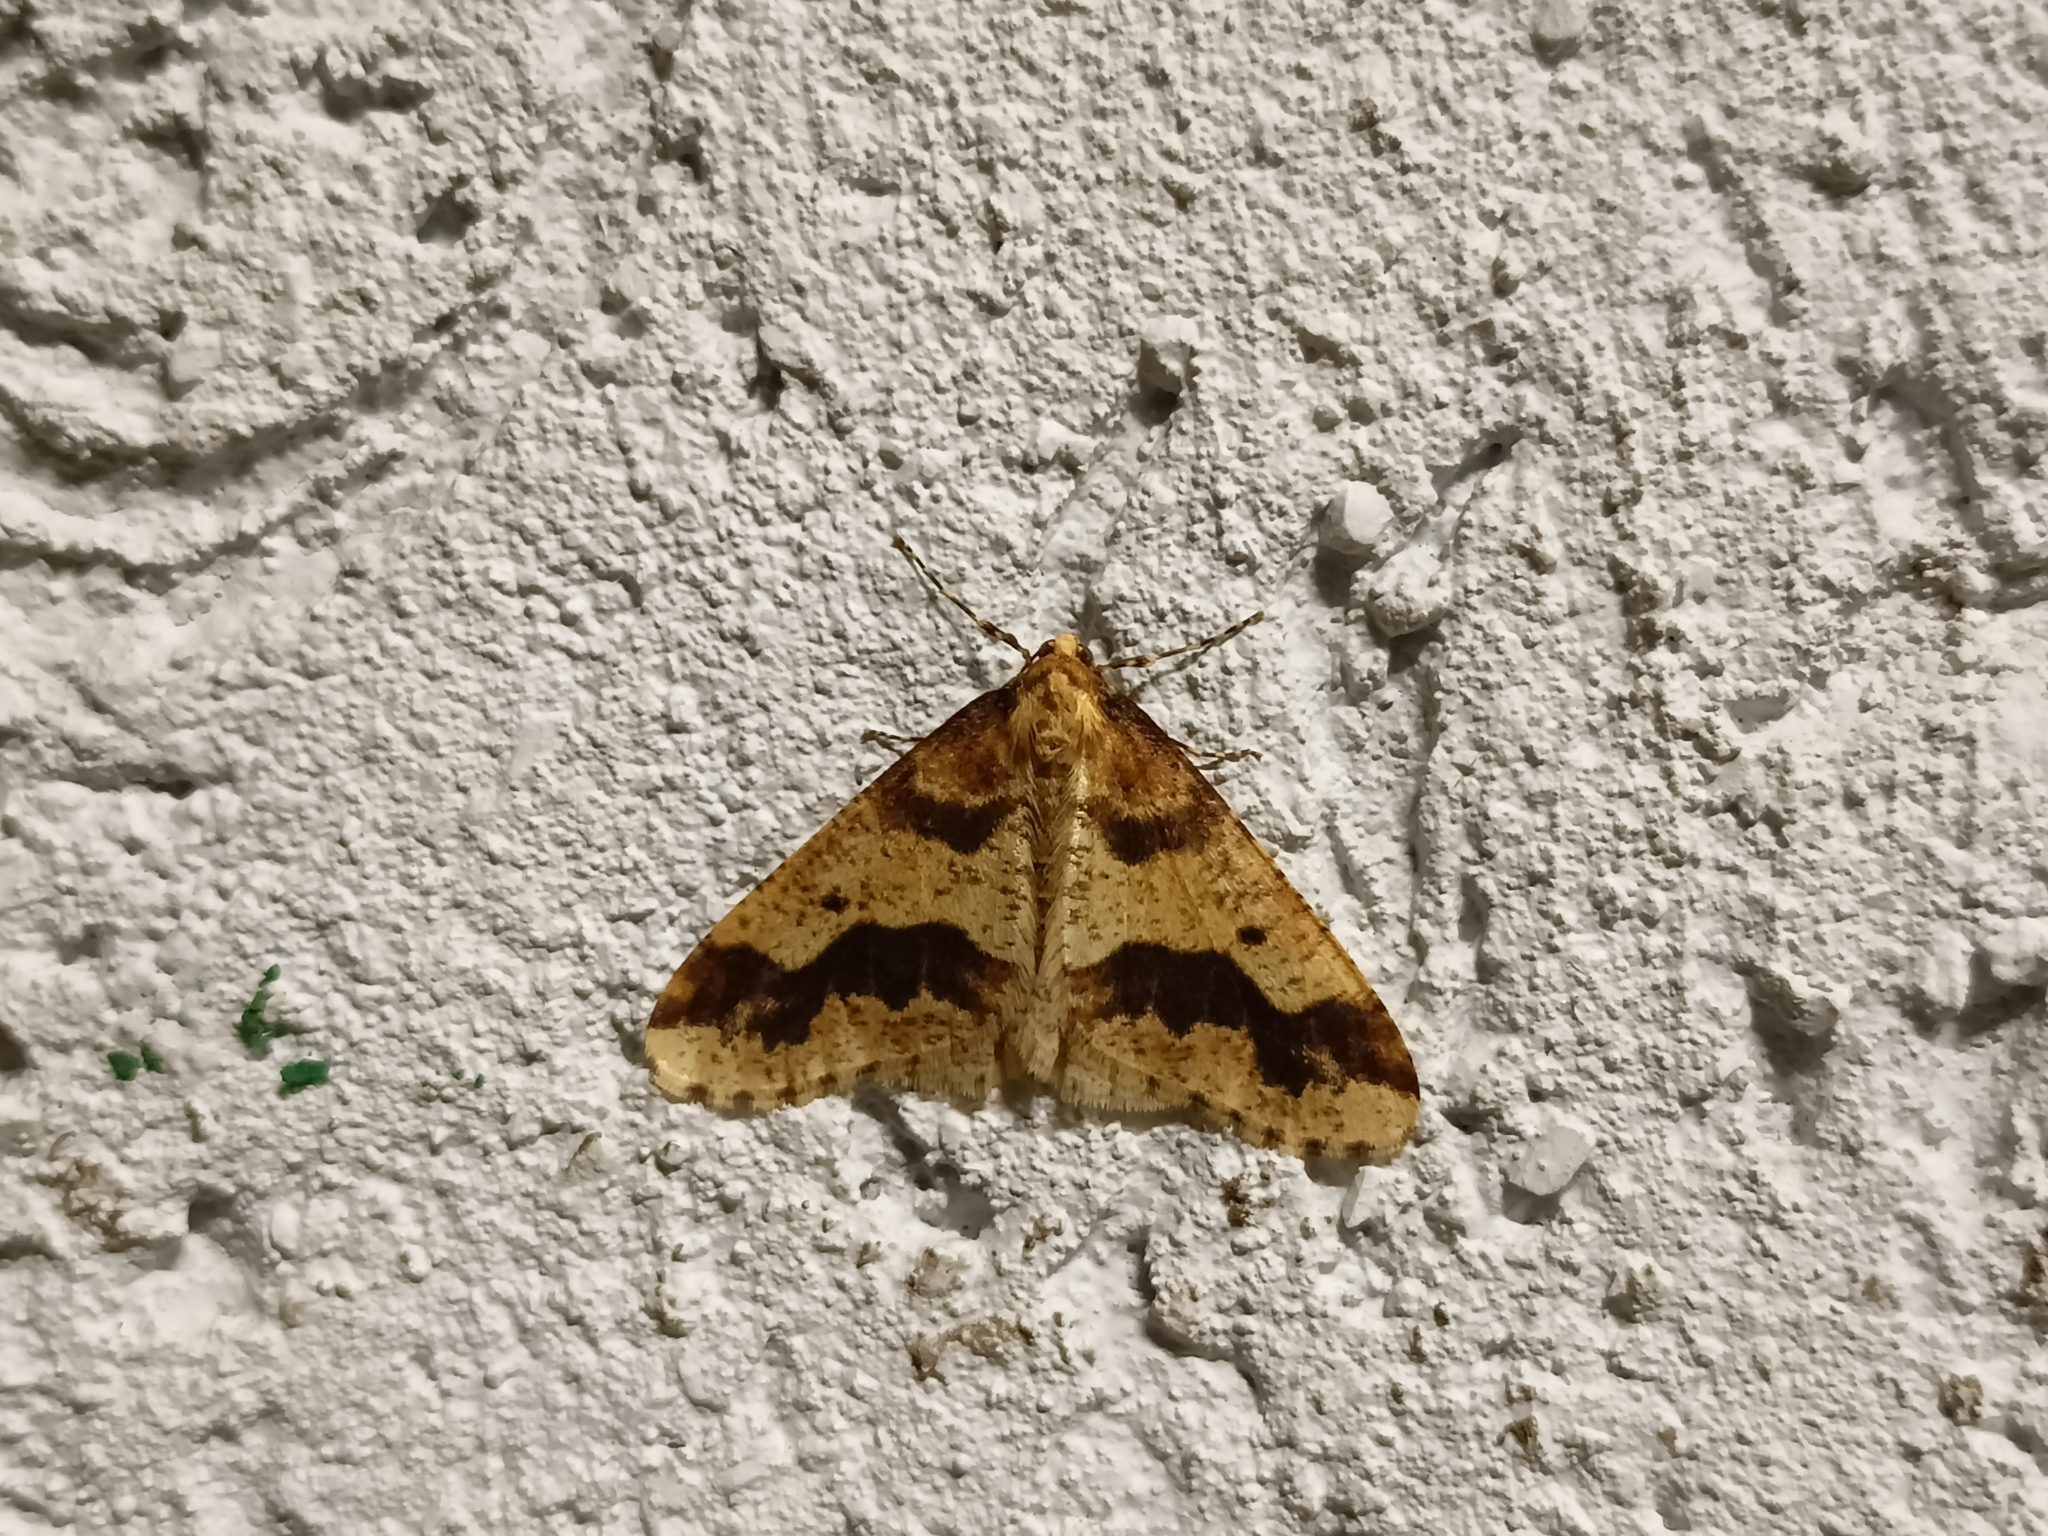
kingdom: Animalia
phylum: Arthropoda
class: Insecta
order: Lepidoptera
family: Geometridae
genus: Erannis
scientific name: Erannis defoliaria
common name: Mottled umber
